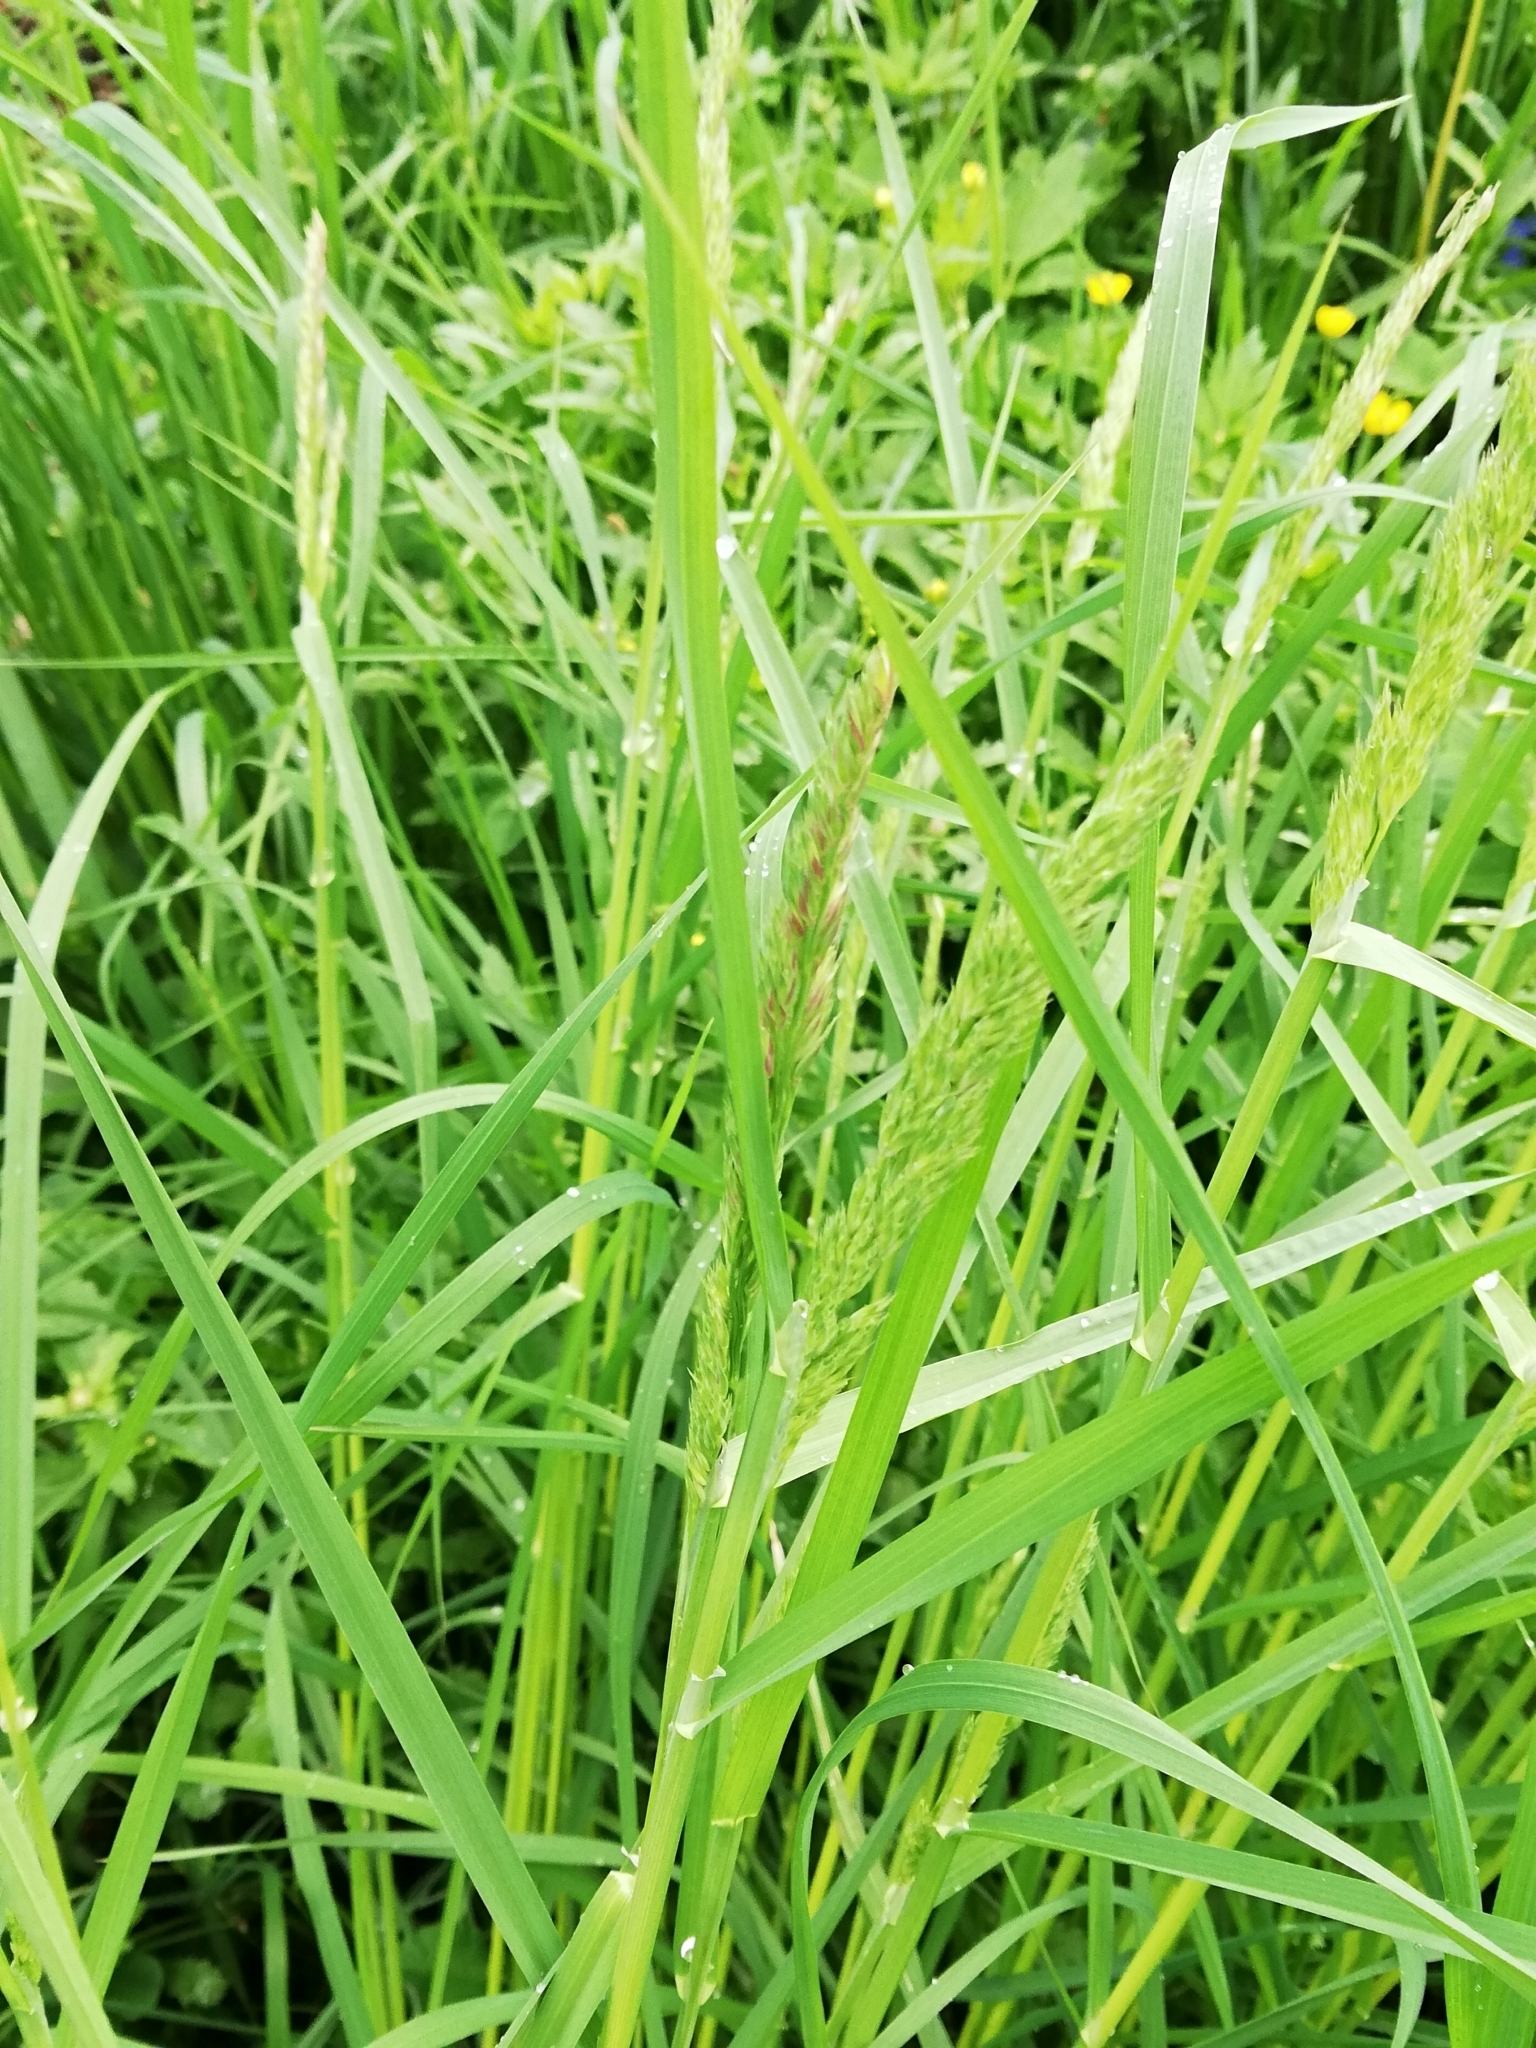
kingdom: Plantae
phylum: Tracheophyta
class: Liliopsida
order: Poales
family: Poaceae
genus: Dactylis
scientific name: Dactylis glomerata
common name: Orchardgrass
